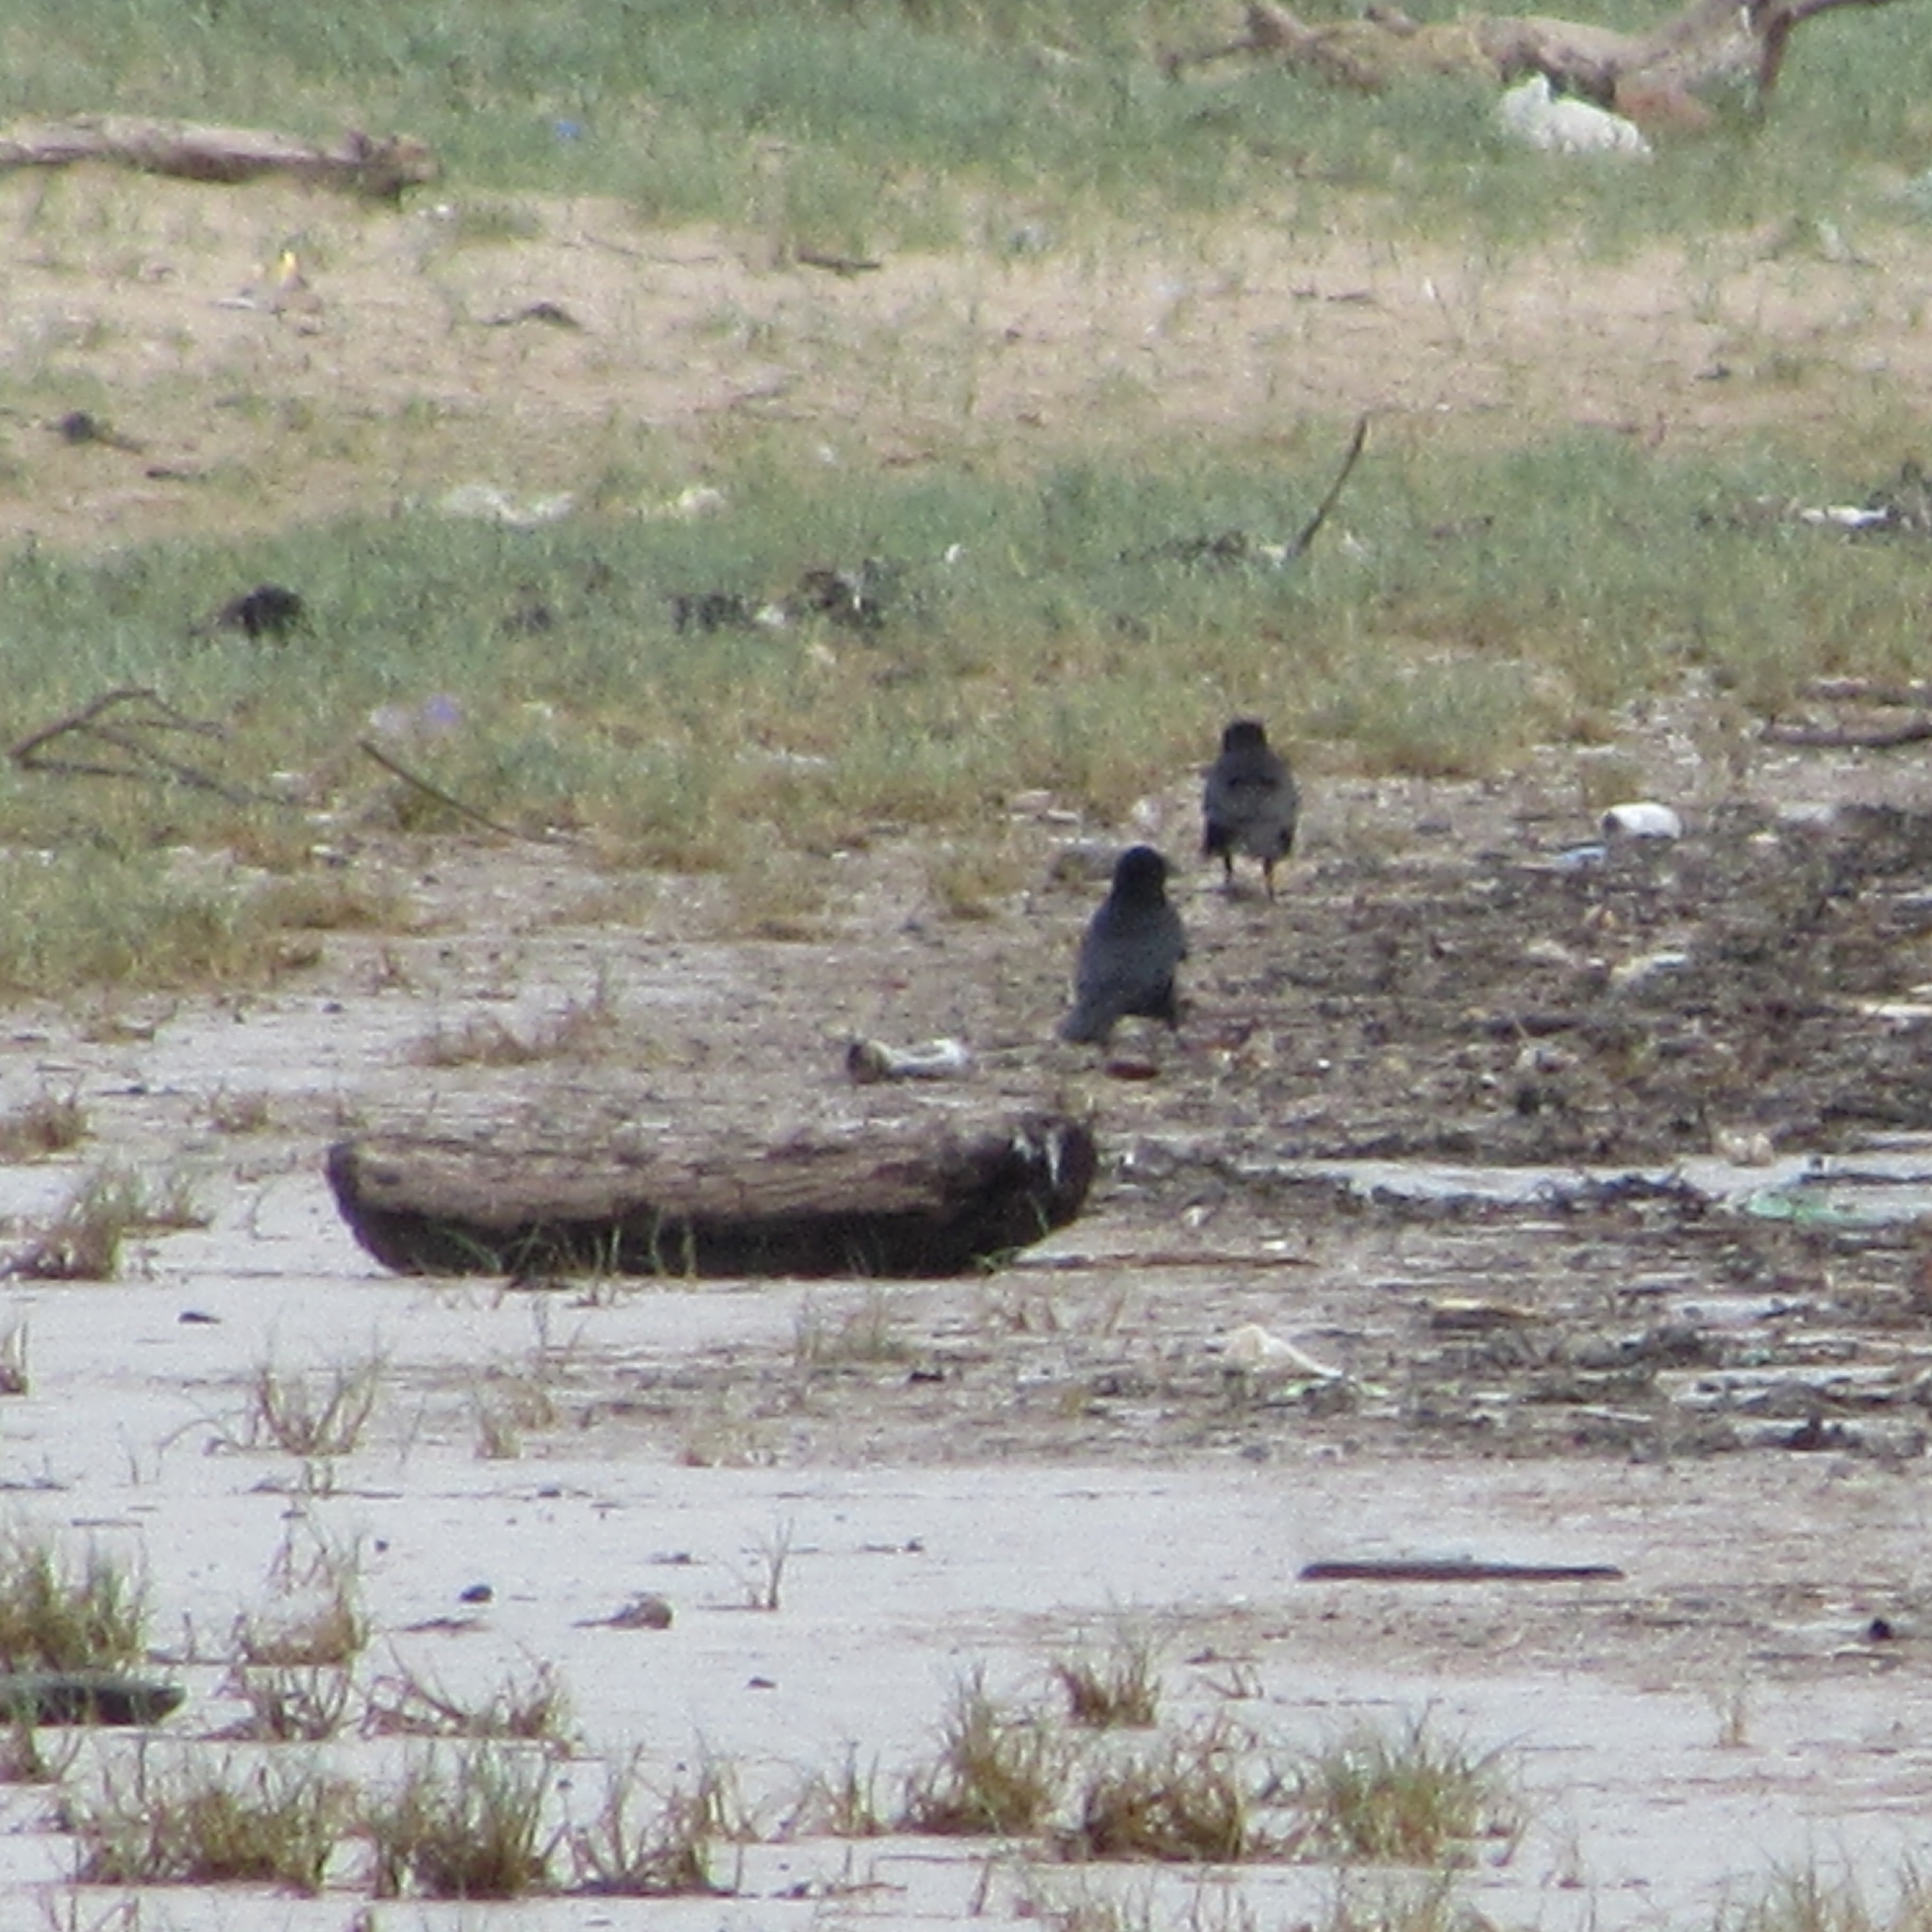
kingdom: Animalia
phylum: Chordata
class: Aves
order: Passeriformes
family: Corvidae
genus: Corvus
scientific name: Corvus corone
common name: Carrion crow
